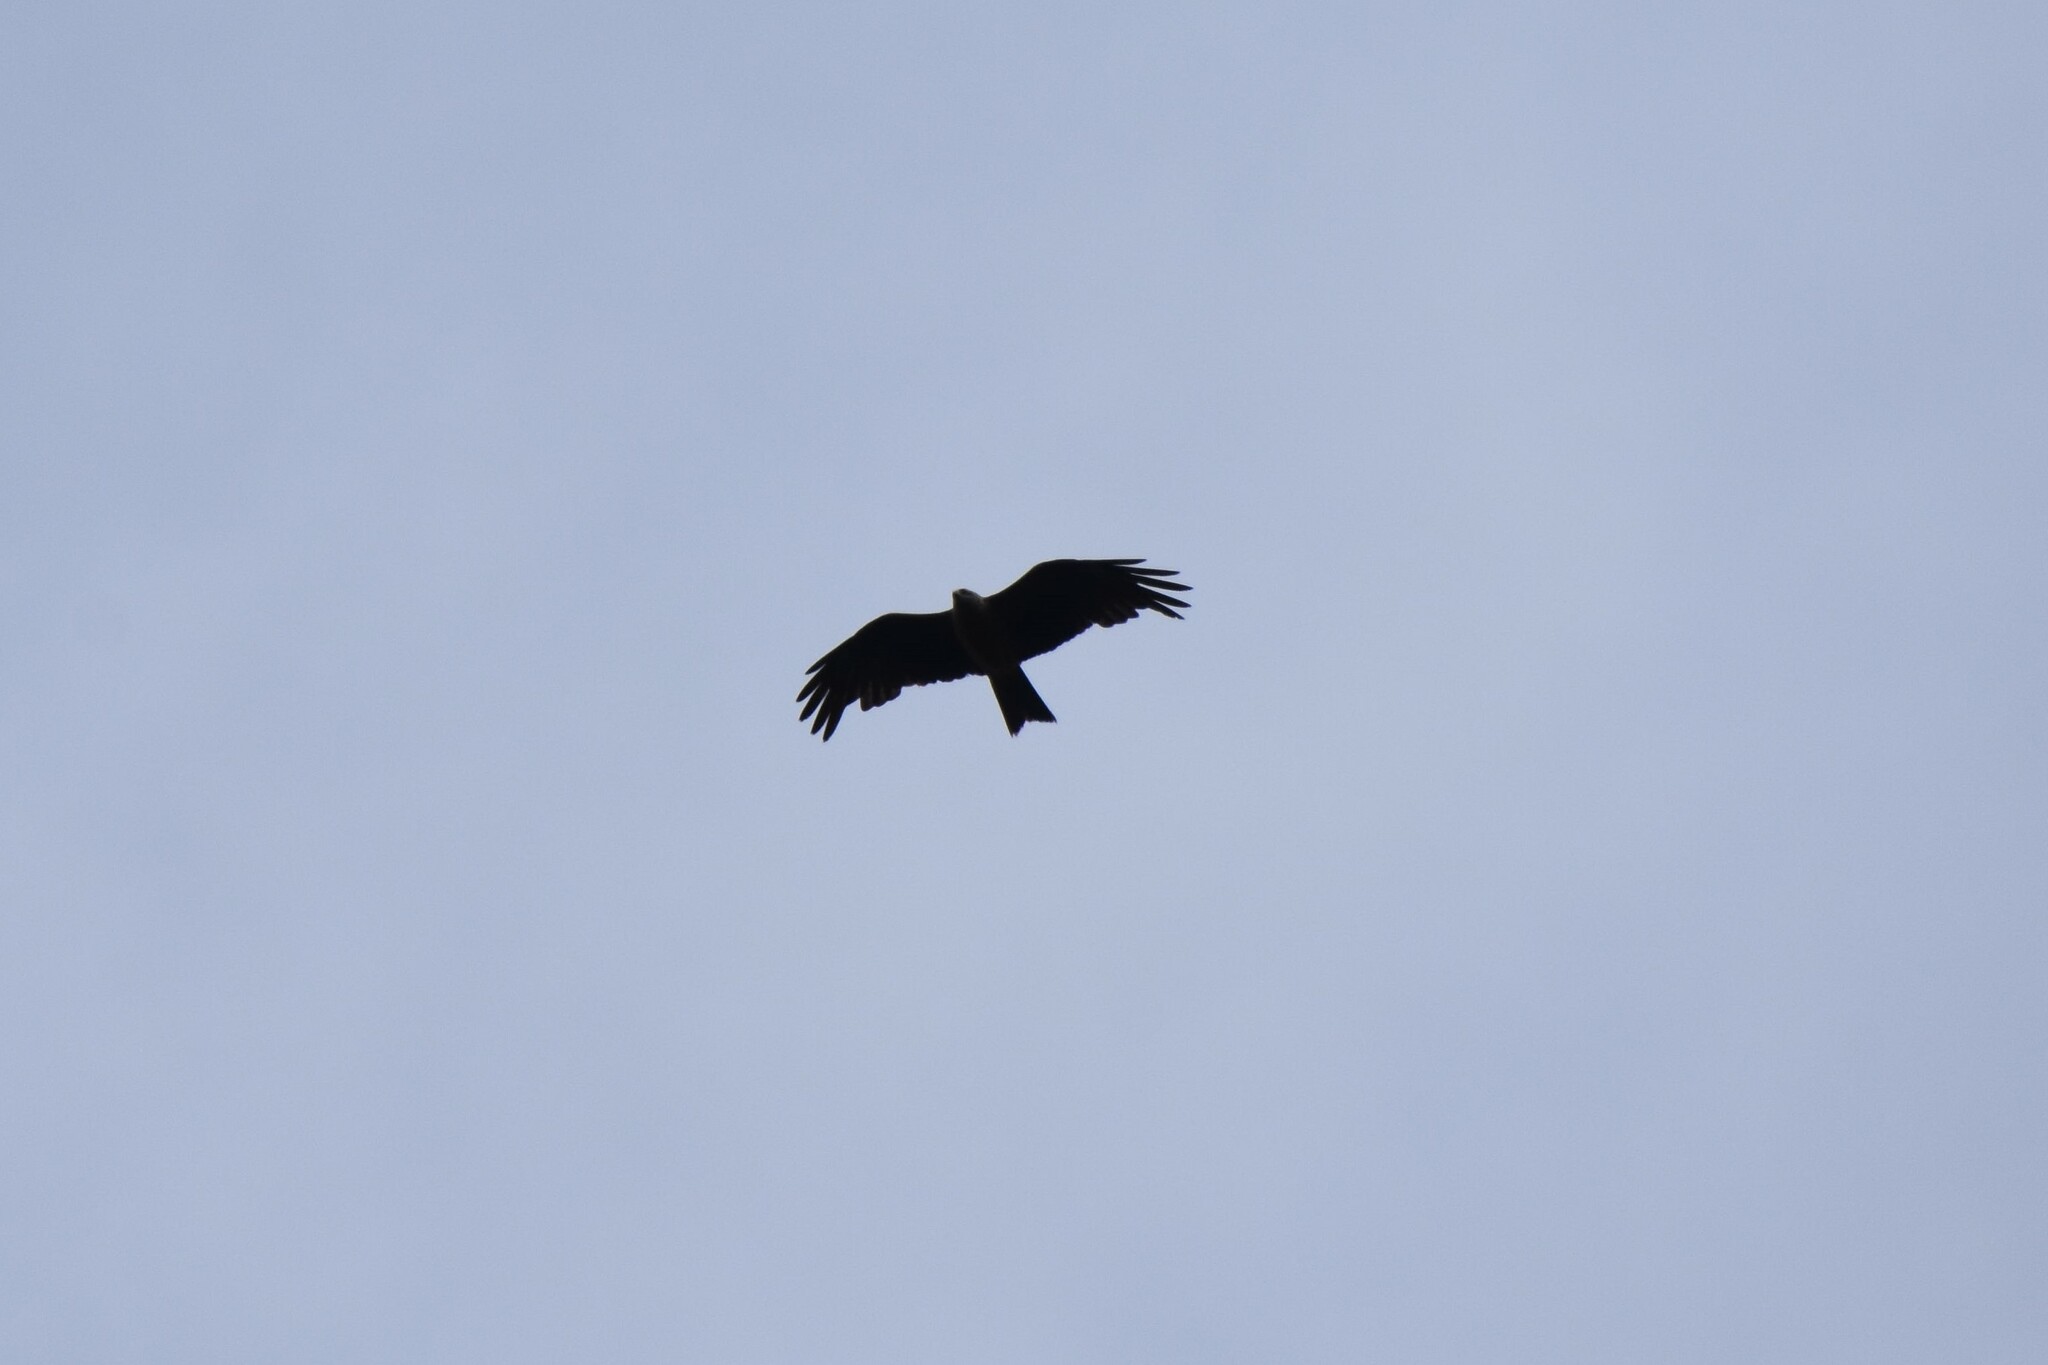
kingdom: Animalia
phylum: Chordata
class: Aves
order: Accipitriformes
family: Accipitridae
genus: Milvus
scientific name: Milvus migrans
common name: Black kite
